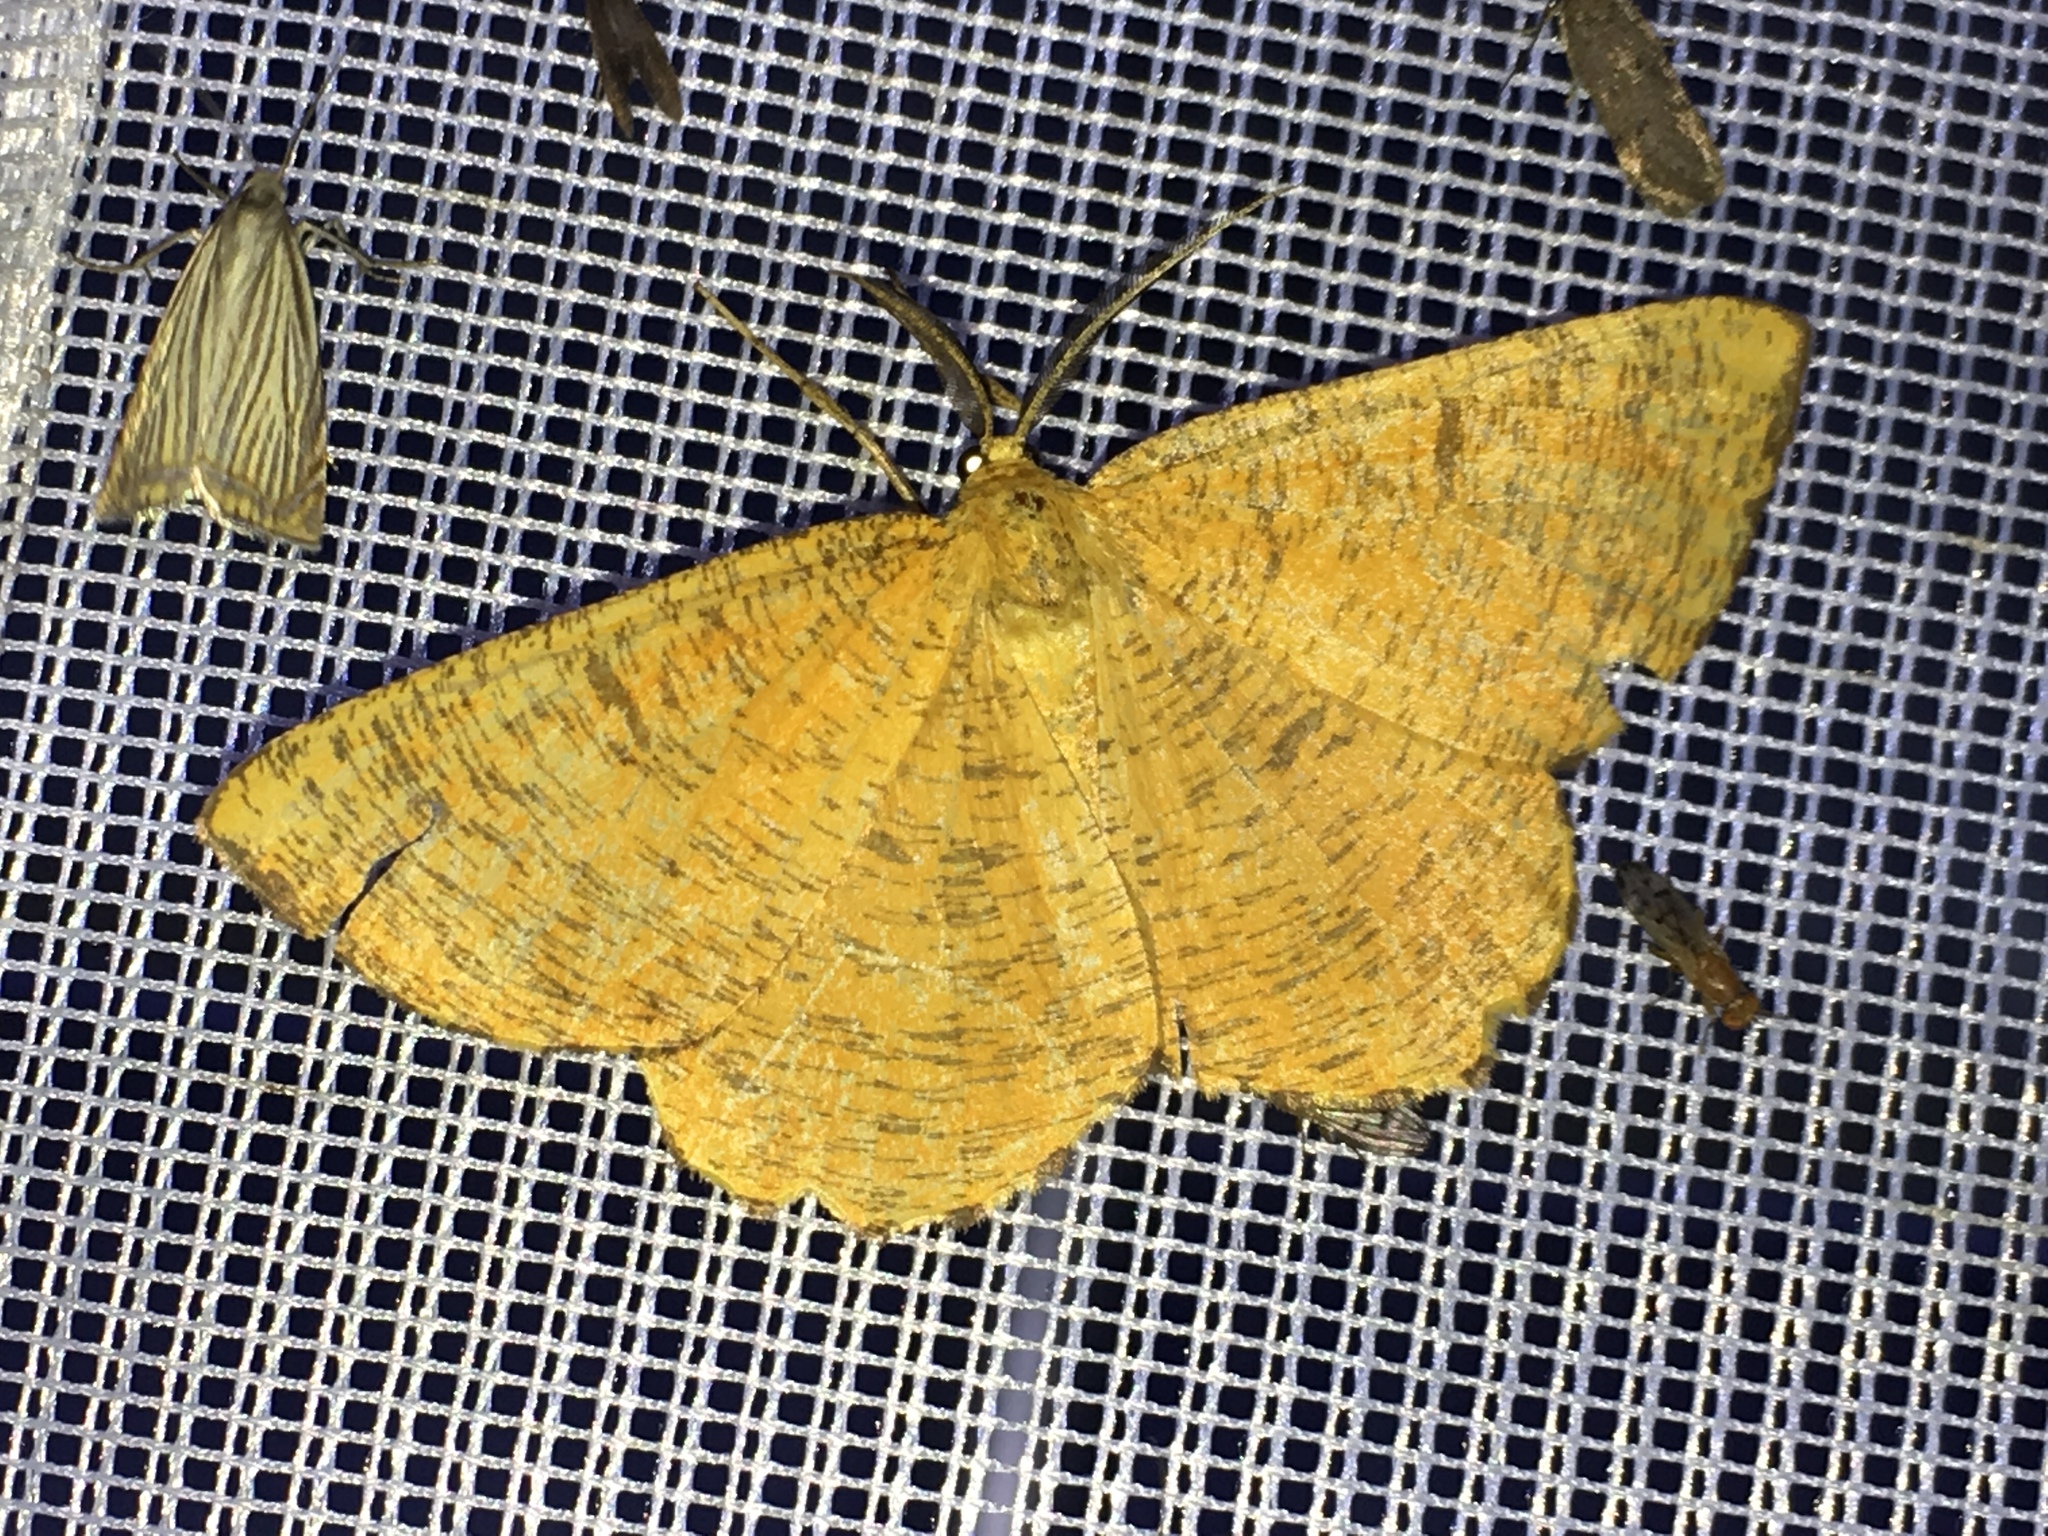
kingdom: Animalia
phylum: Arthropoda
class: Insecta
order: Lepidoptera
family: Geometridae
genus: Angerona
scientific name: Angerona prunaria
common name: Orange moth
